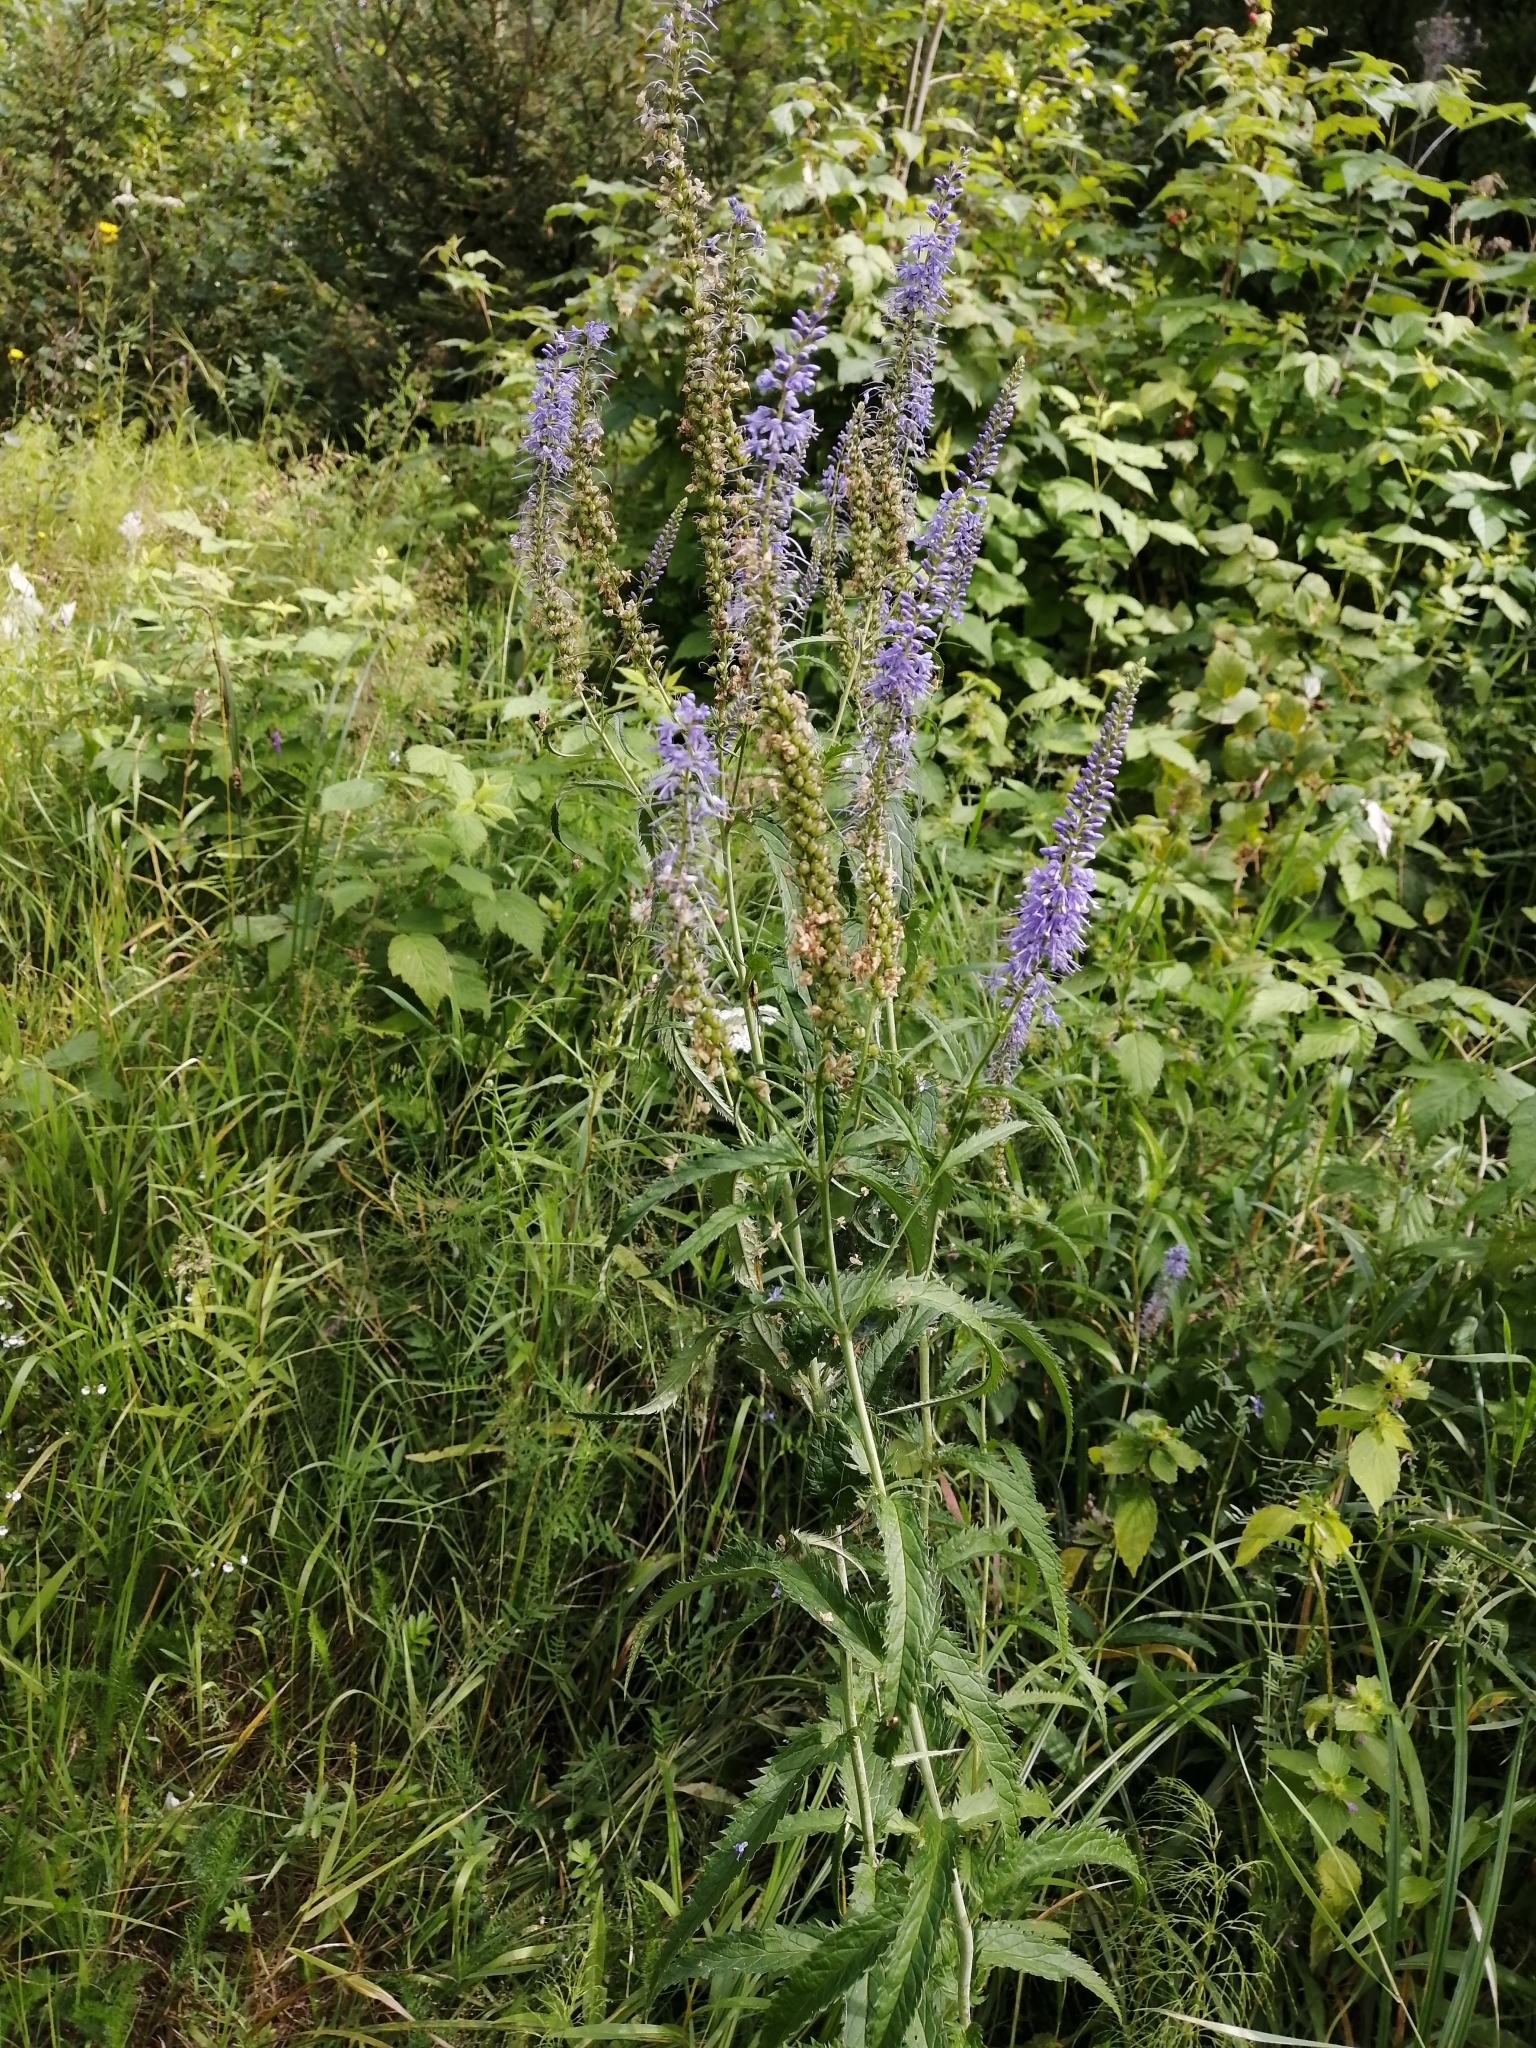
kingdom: Plantae
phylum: Tracheophyta
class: Magnoliopsida
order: Lamiales
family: Plantaginaceae
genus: Veronica
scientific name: Veronica longifolia
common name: Garden speedwell
